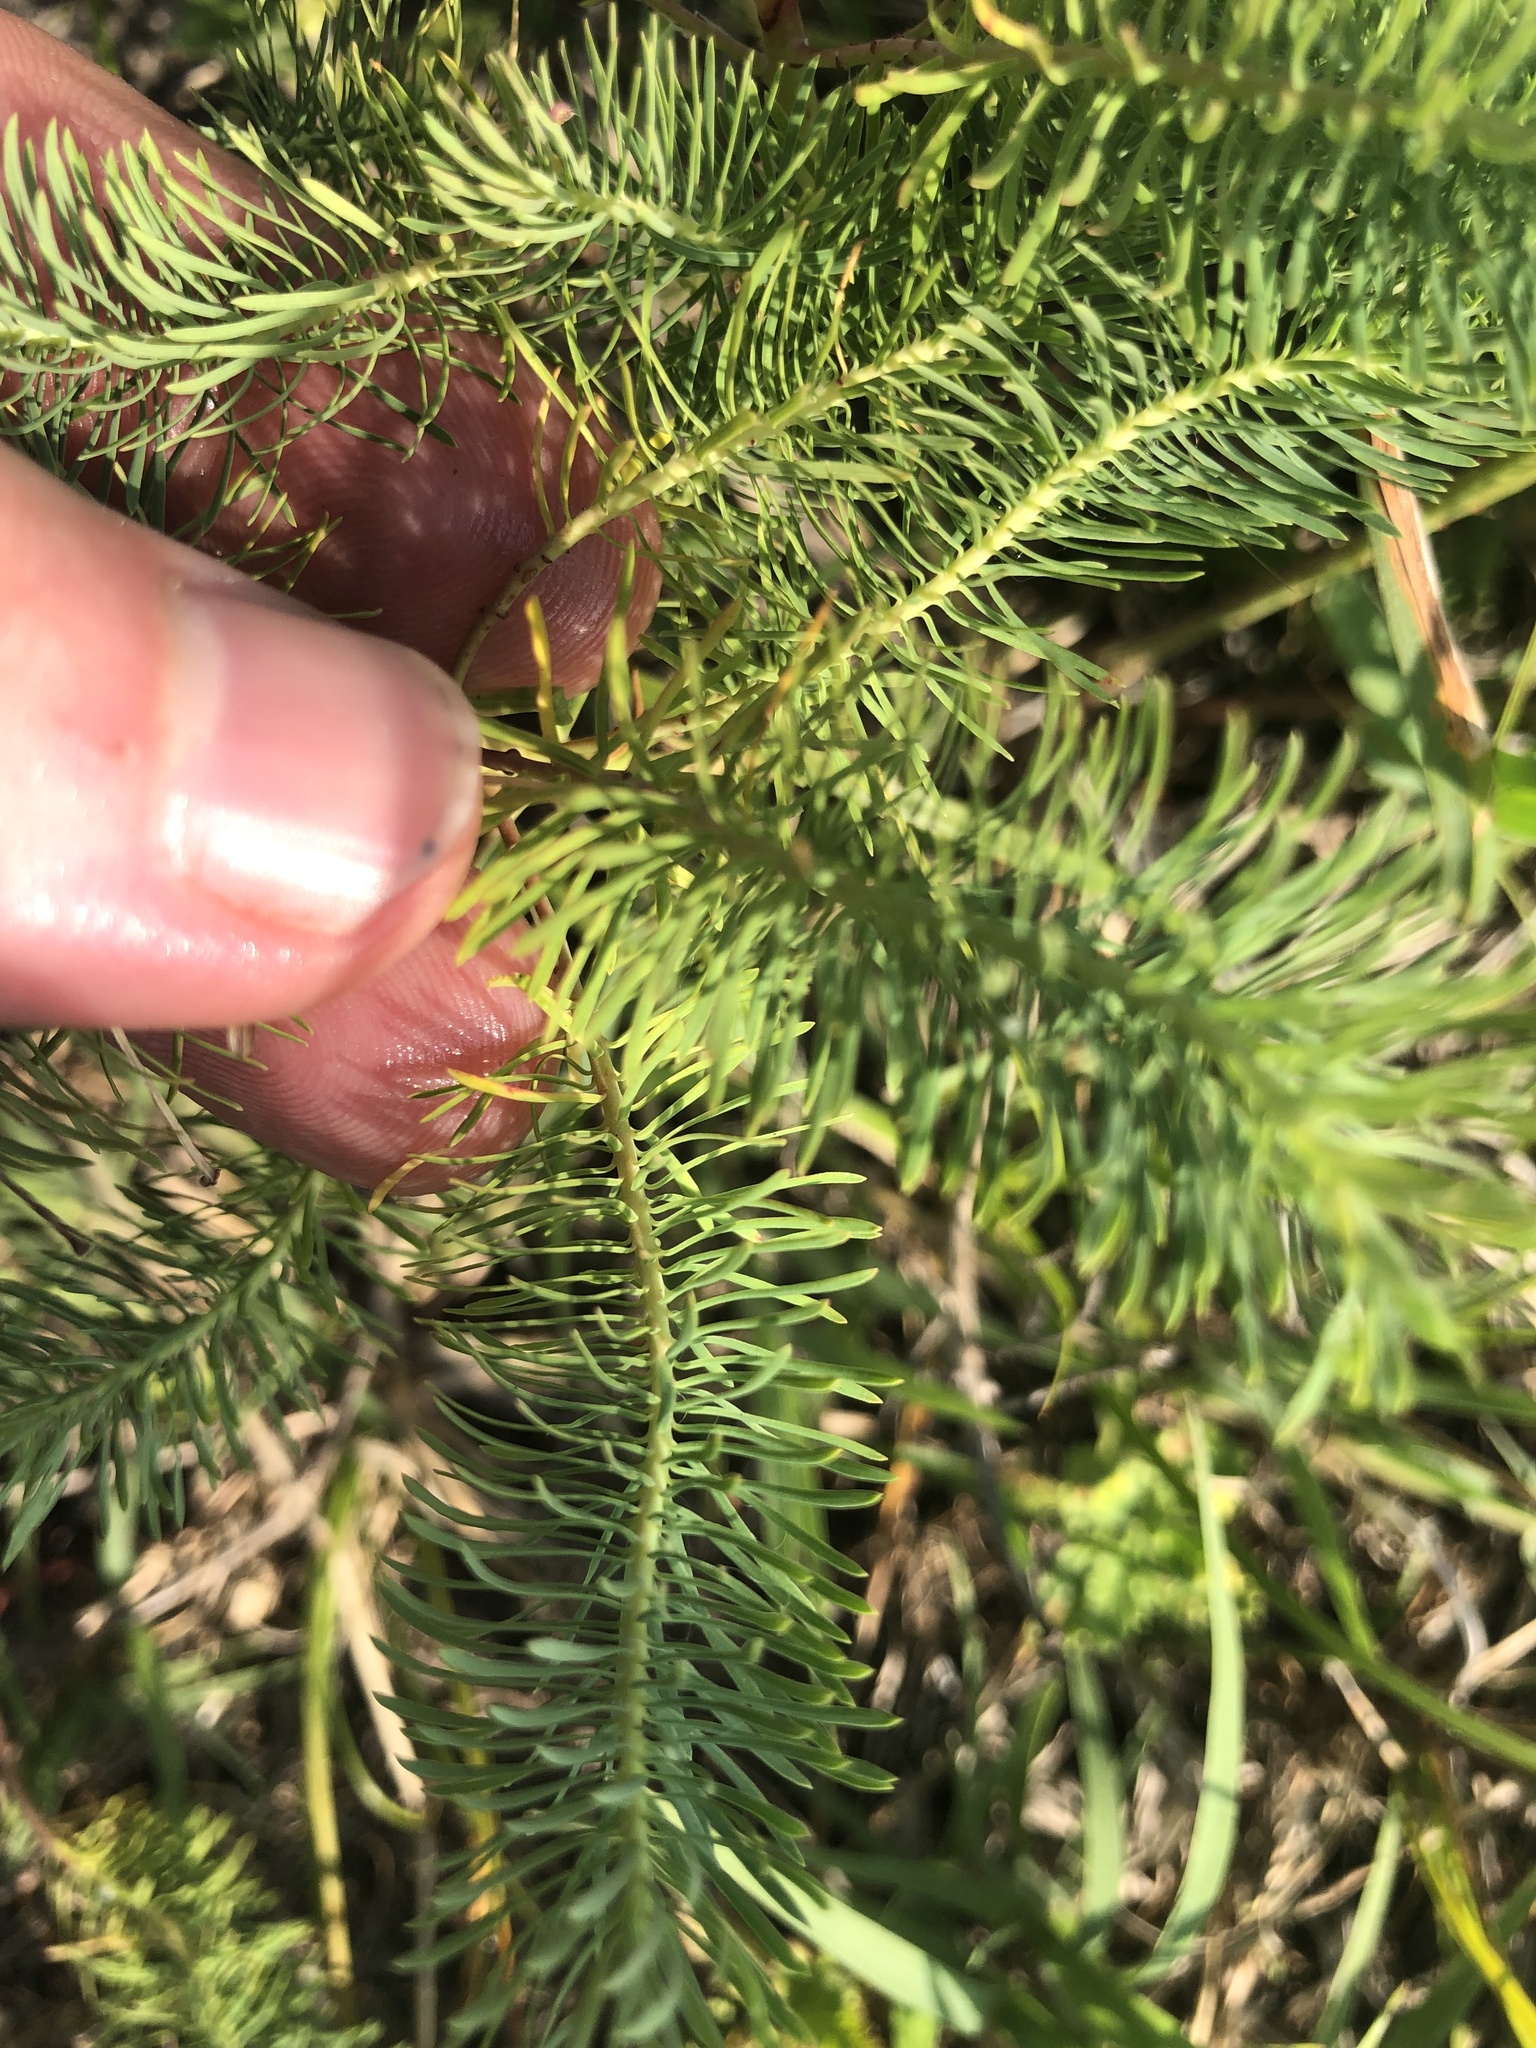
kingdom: Plantae
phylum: Tracheophyta
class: Magnoliopsida
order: Malpighiales
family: Euphorbiaceae
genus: Euphorbia
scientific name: Euphorbia cyparissias
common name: Cypress spurge
